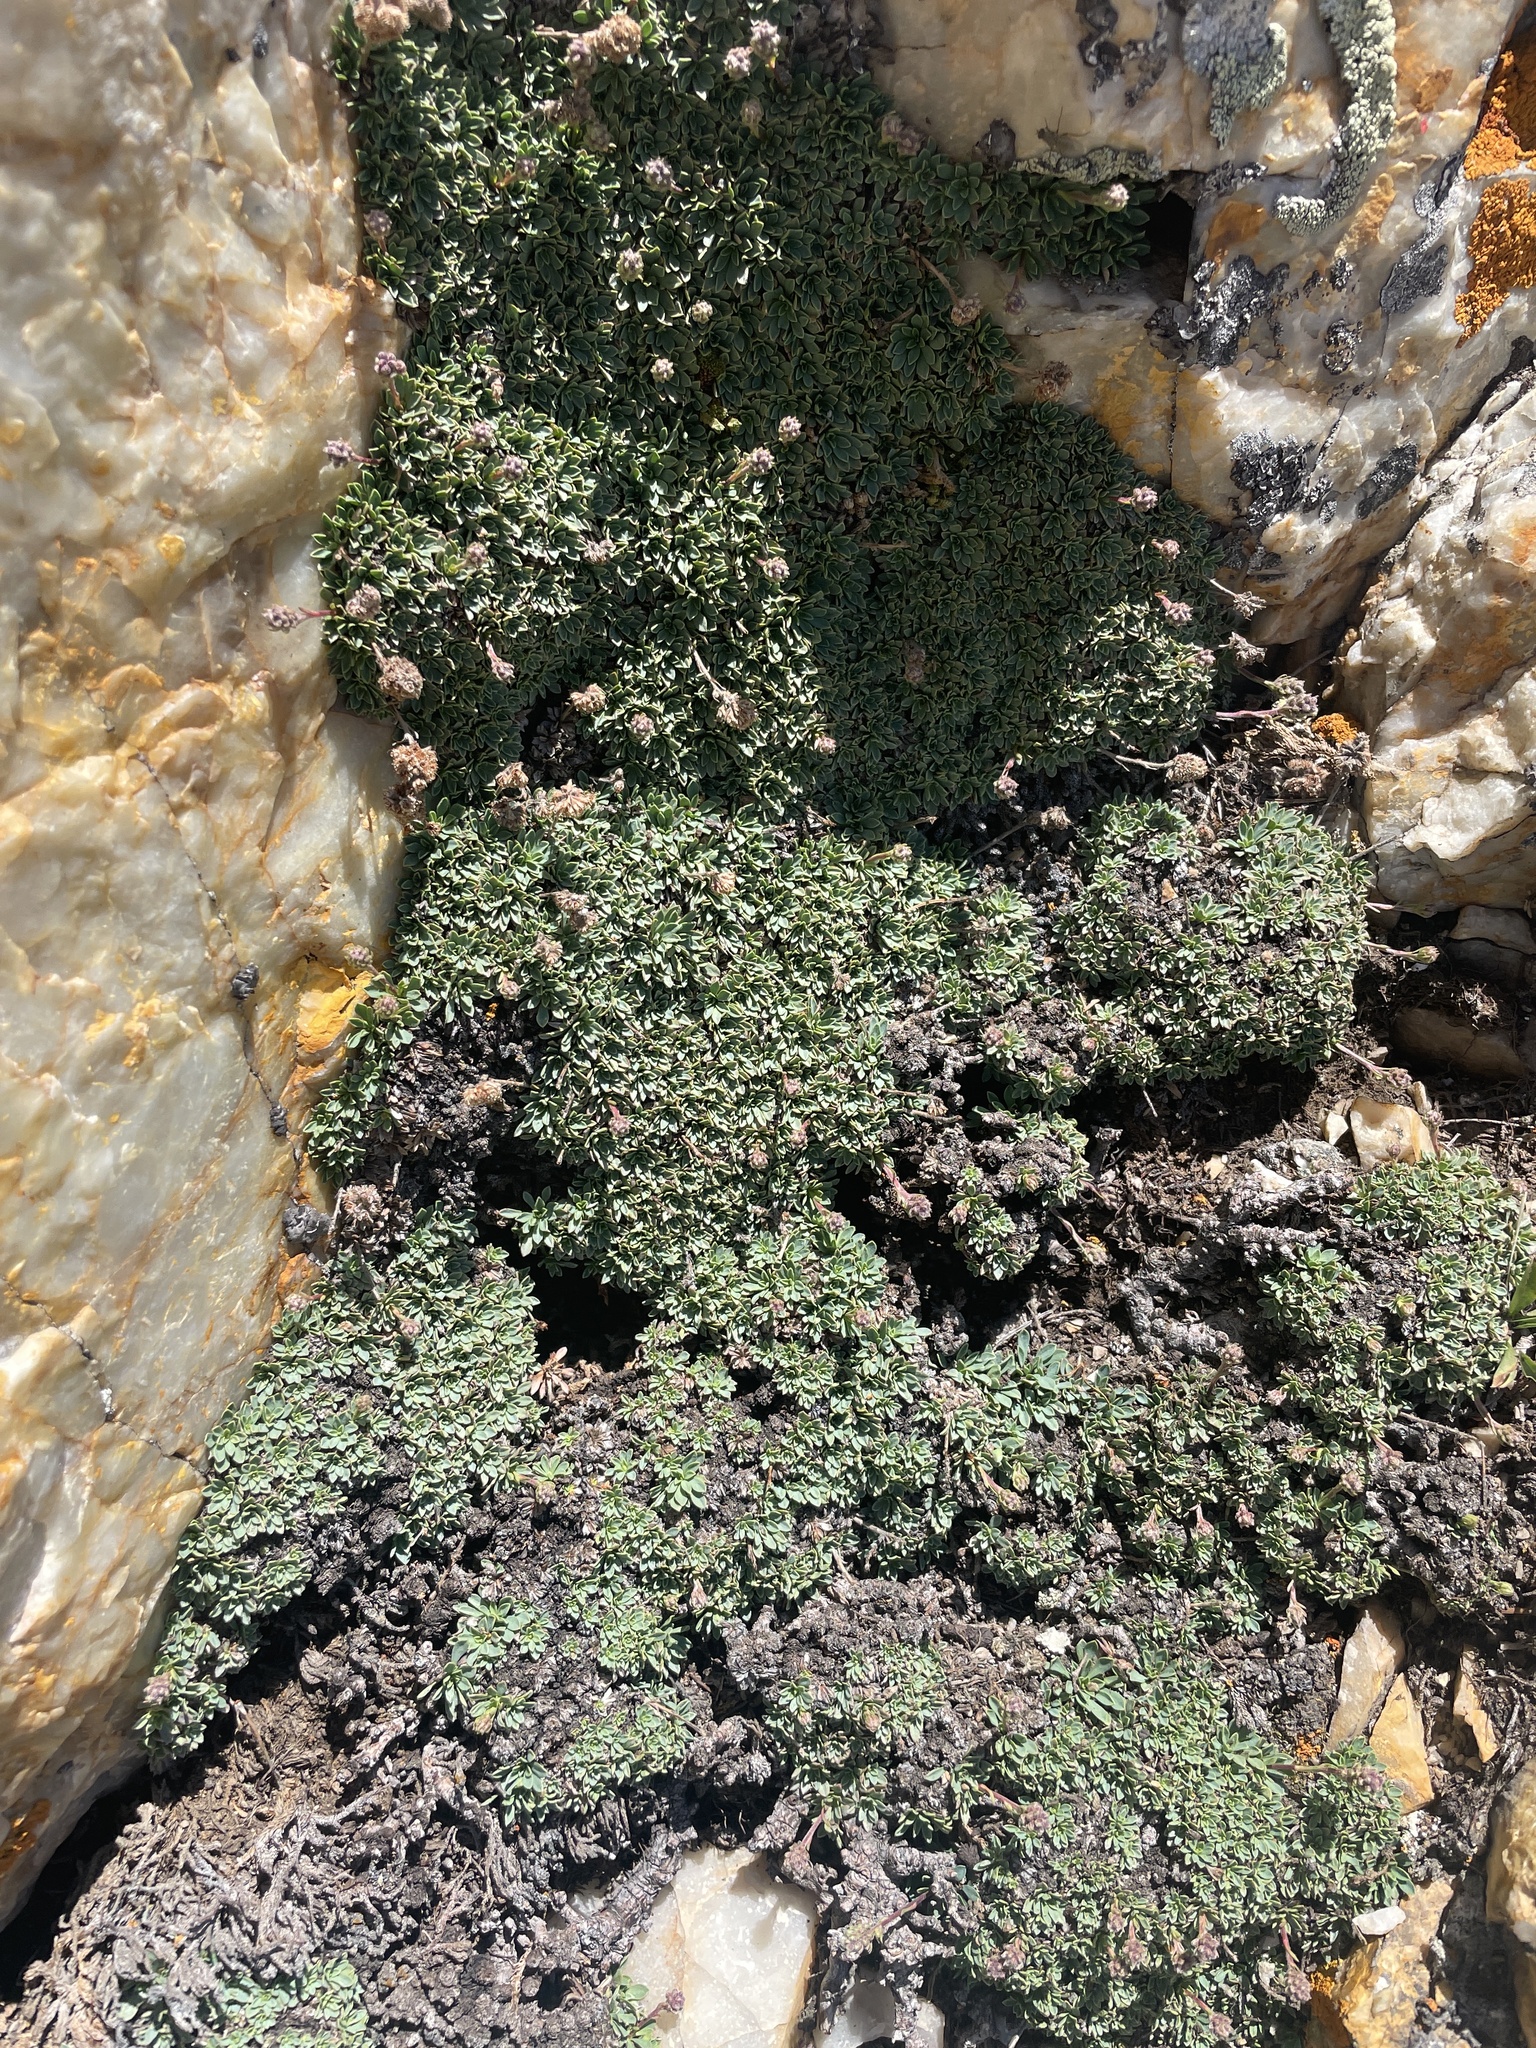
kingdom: Plantae
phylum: Tracheophyta
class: Magnoliopsida
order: Rosales
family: Rosaceae
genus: Petrophytum
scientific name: Petrophytum caespitosum
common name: Mat rockspirea
